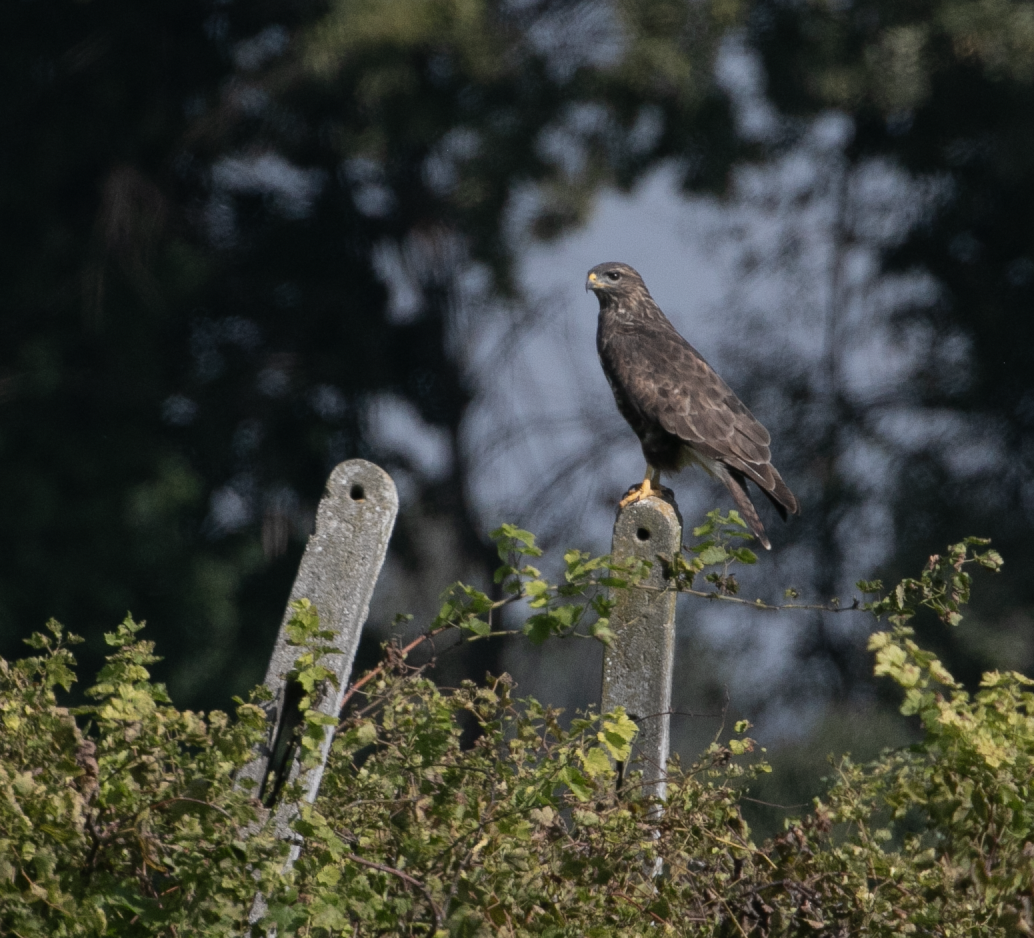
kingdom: Animalia
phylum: Chordata
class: Aves
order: Accipitriformes
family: Accipitridae
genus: Buteo
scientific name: Buteo buteo
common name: Common buzzard
